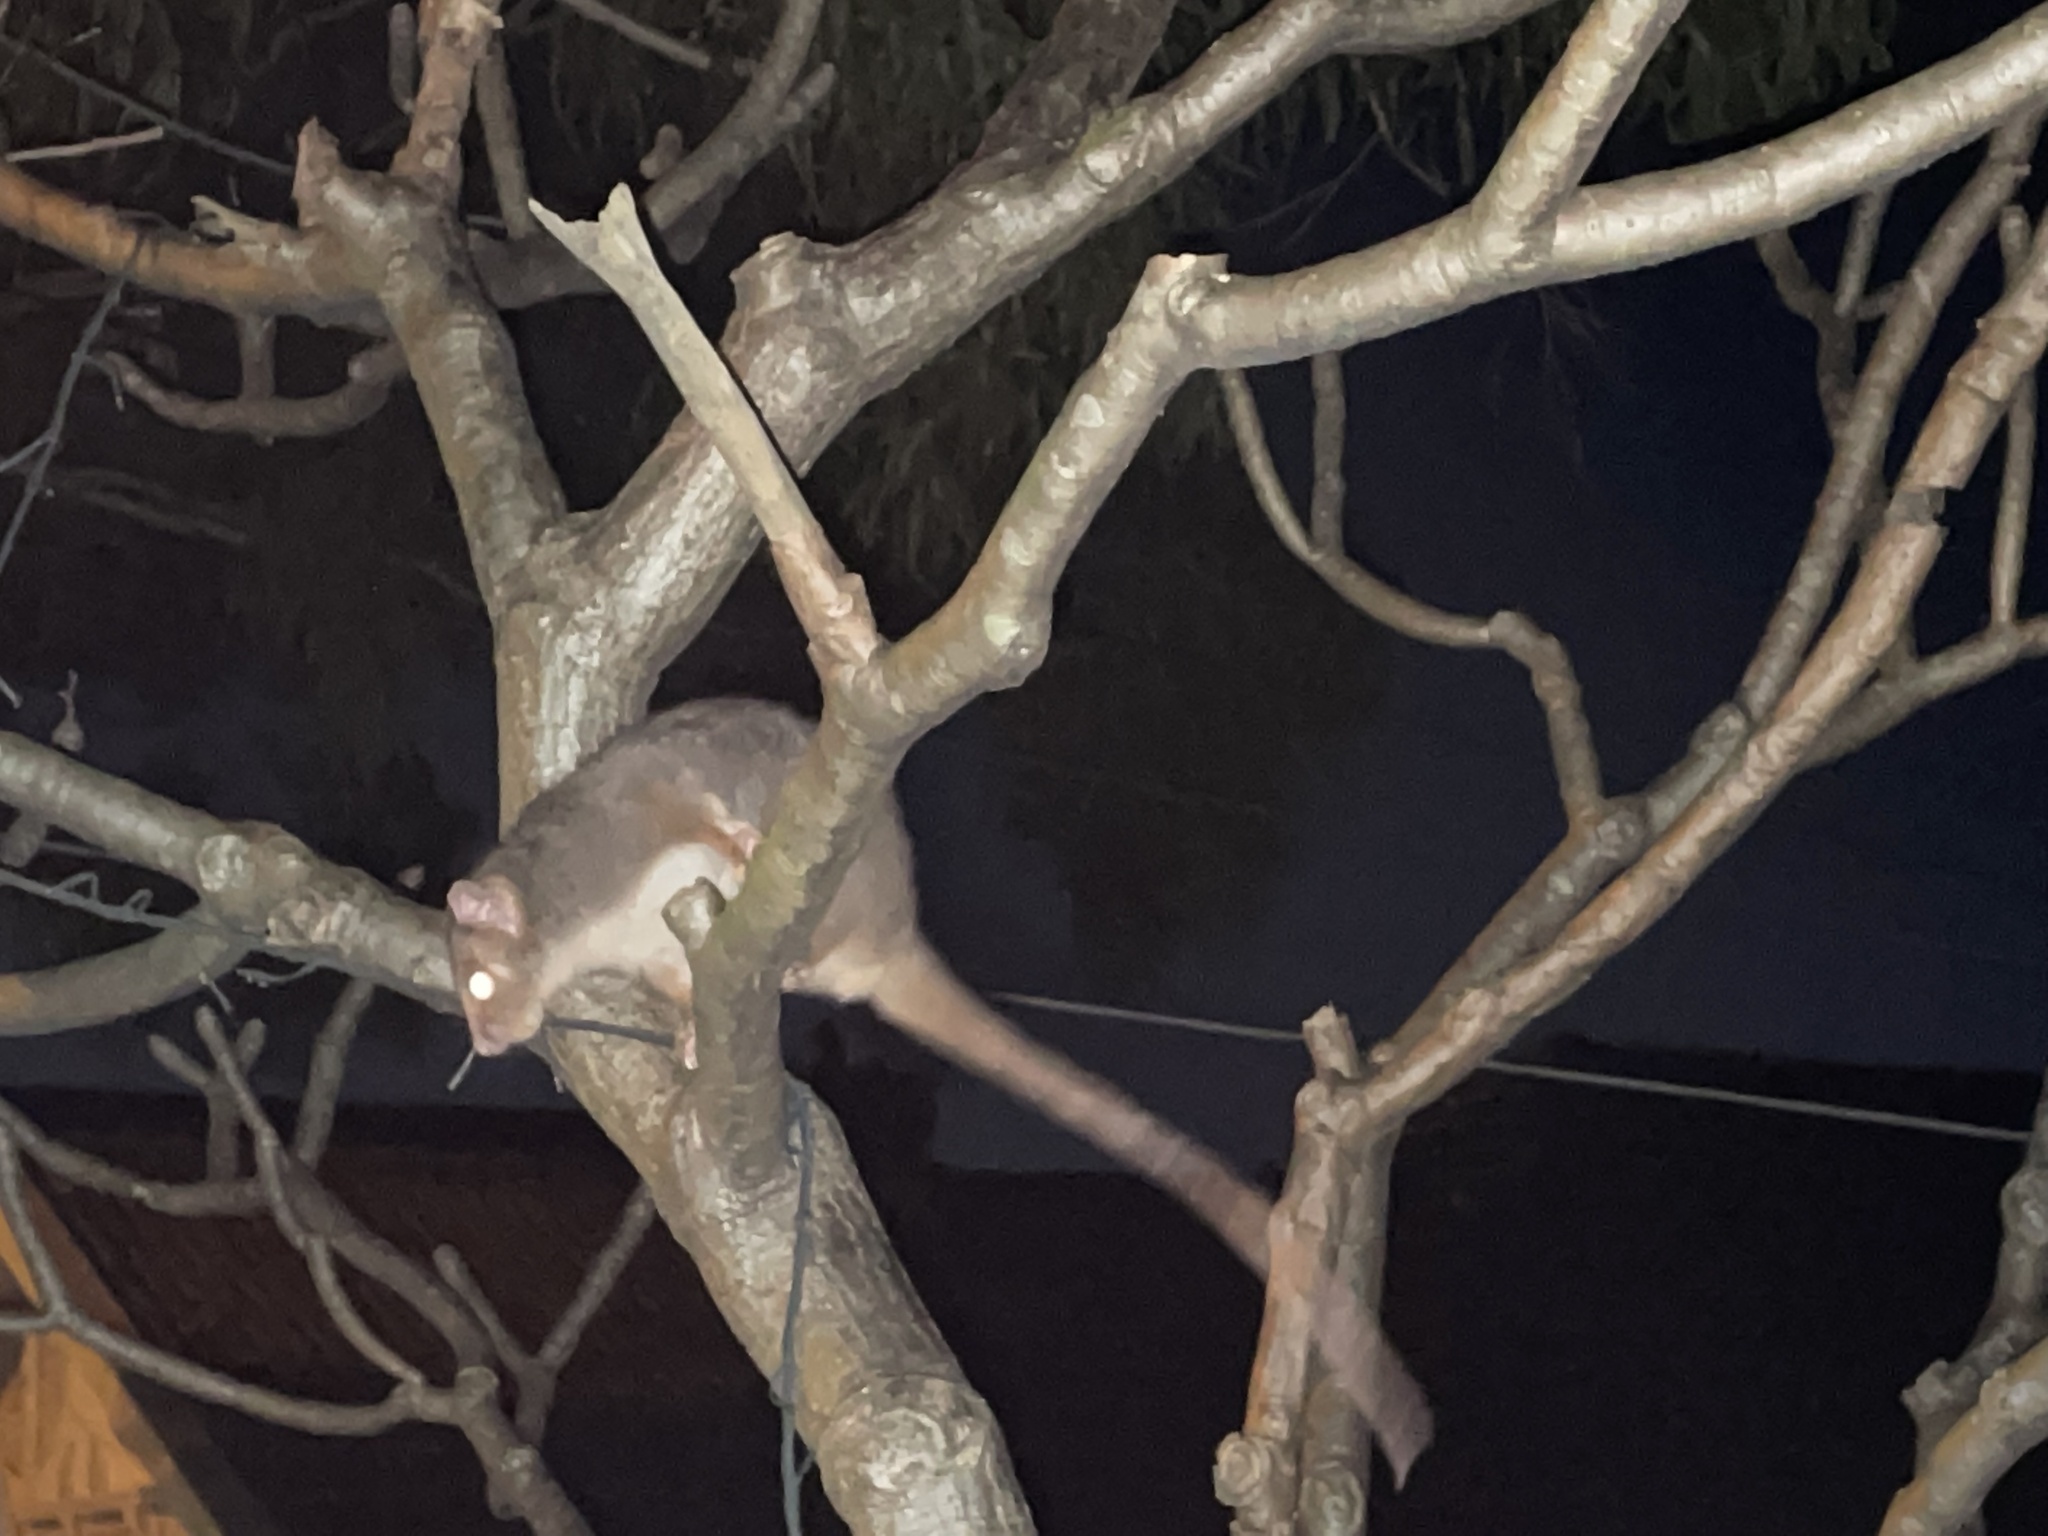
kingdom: Animalia
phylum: Chordata
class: Mammalia
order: Diprotodontia
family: Pseudocheiridae
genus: Pseudocheirus
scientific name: Pseudocheirus peregrinus
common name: Common ringtail possum
